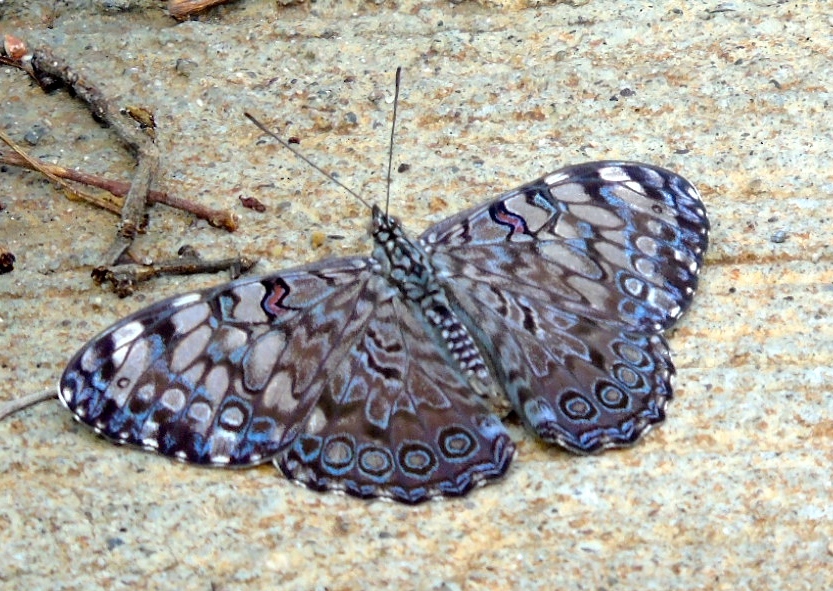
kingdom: Animalia
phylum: Arthropoda
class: Insecta
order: Lepidoptera
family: Nymphalidae
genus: Hamadryas
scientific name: Hamadryas guatemalena
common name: Guatemalan cracker
